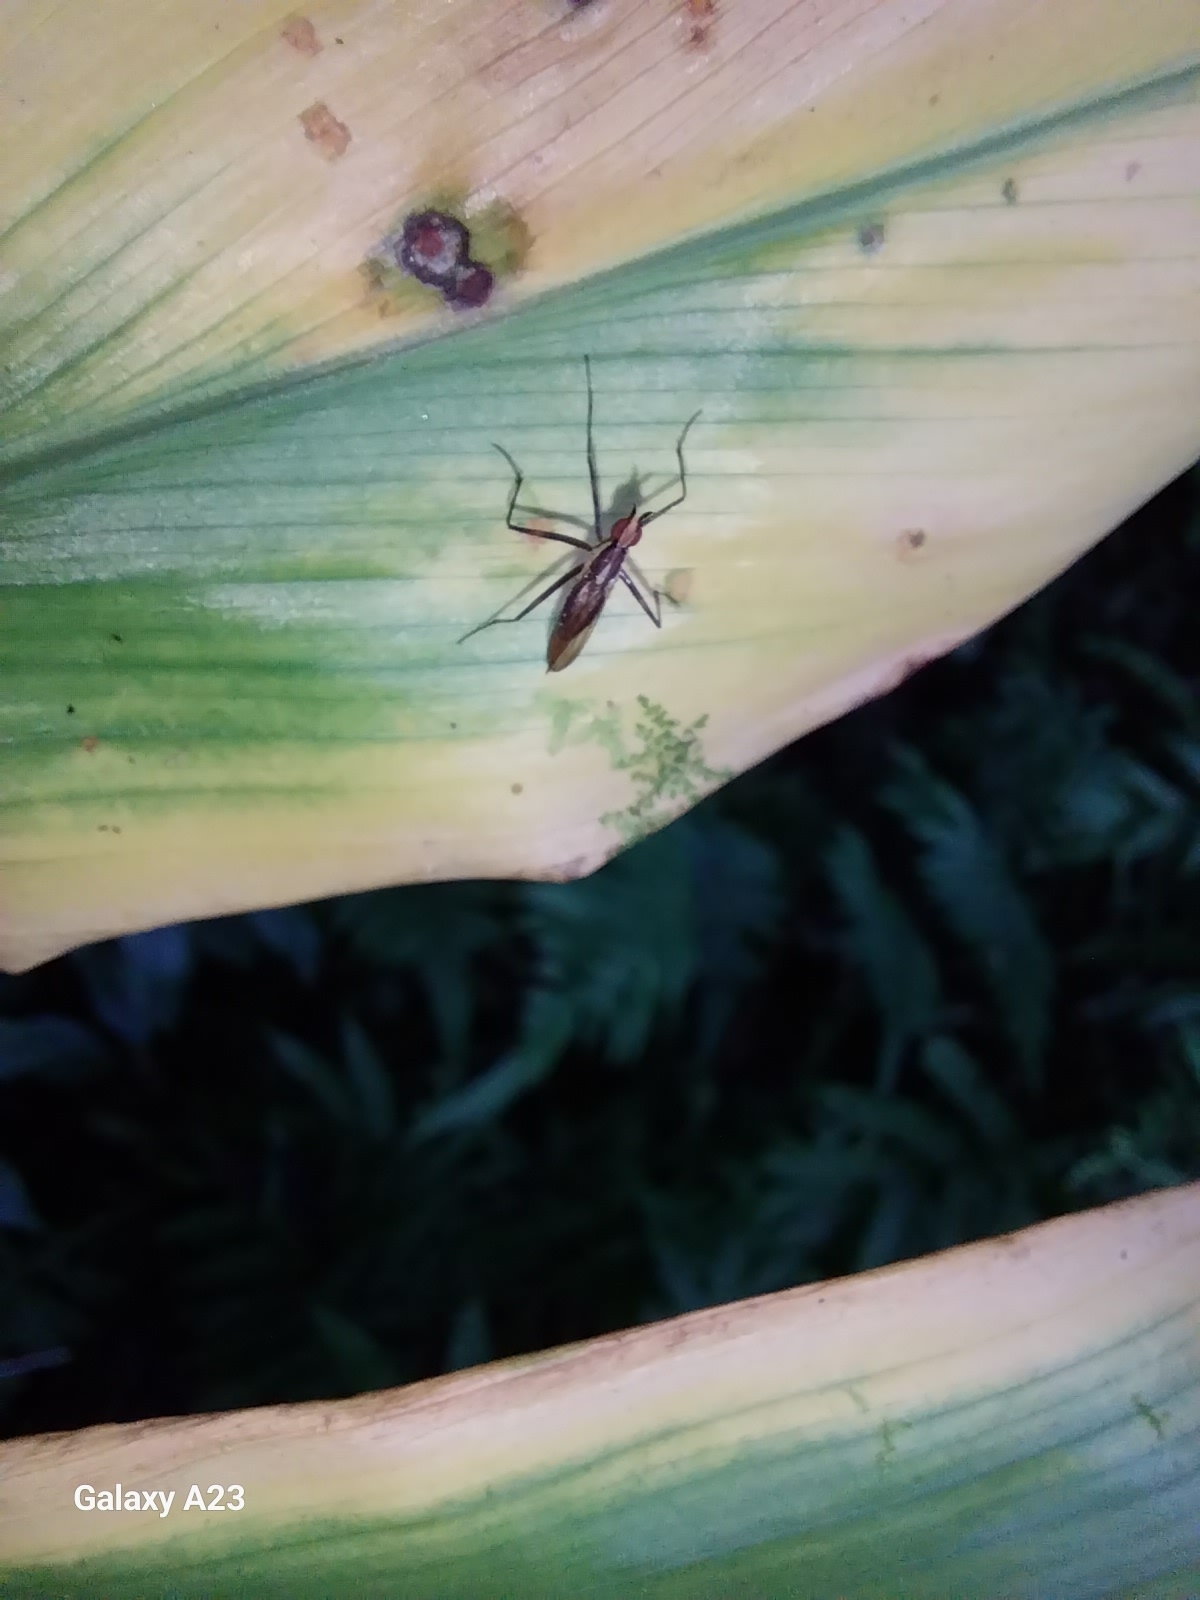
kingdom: Animalia
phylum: Arthropoda
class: Insecta
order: Diptera
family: Neriidae
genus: Telostylinus
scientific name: Telostylinus lineolatus
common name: Banana stalk fly
